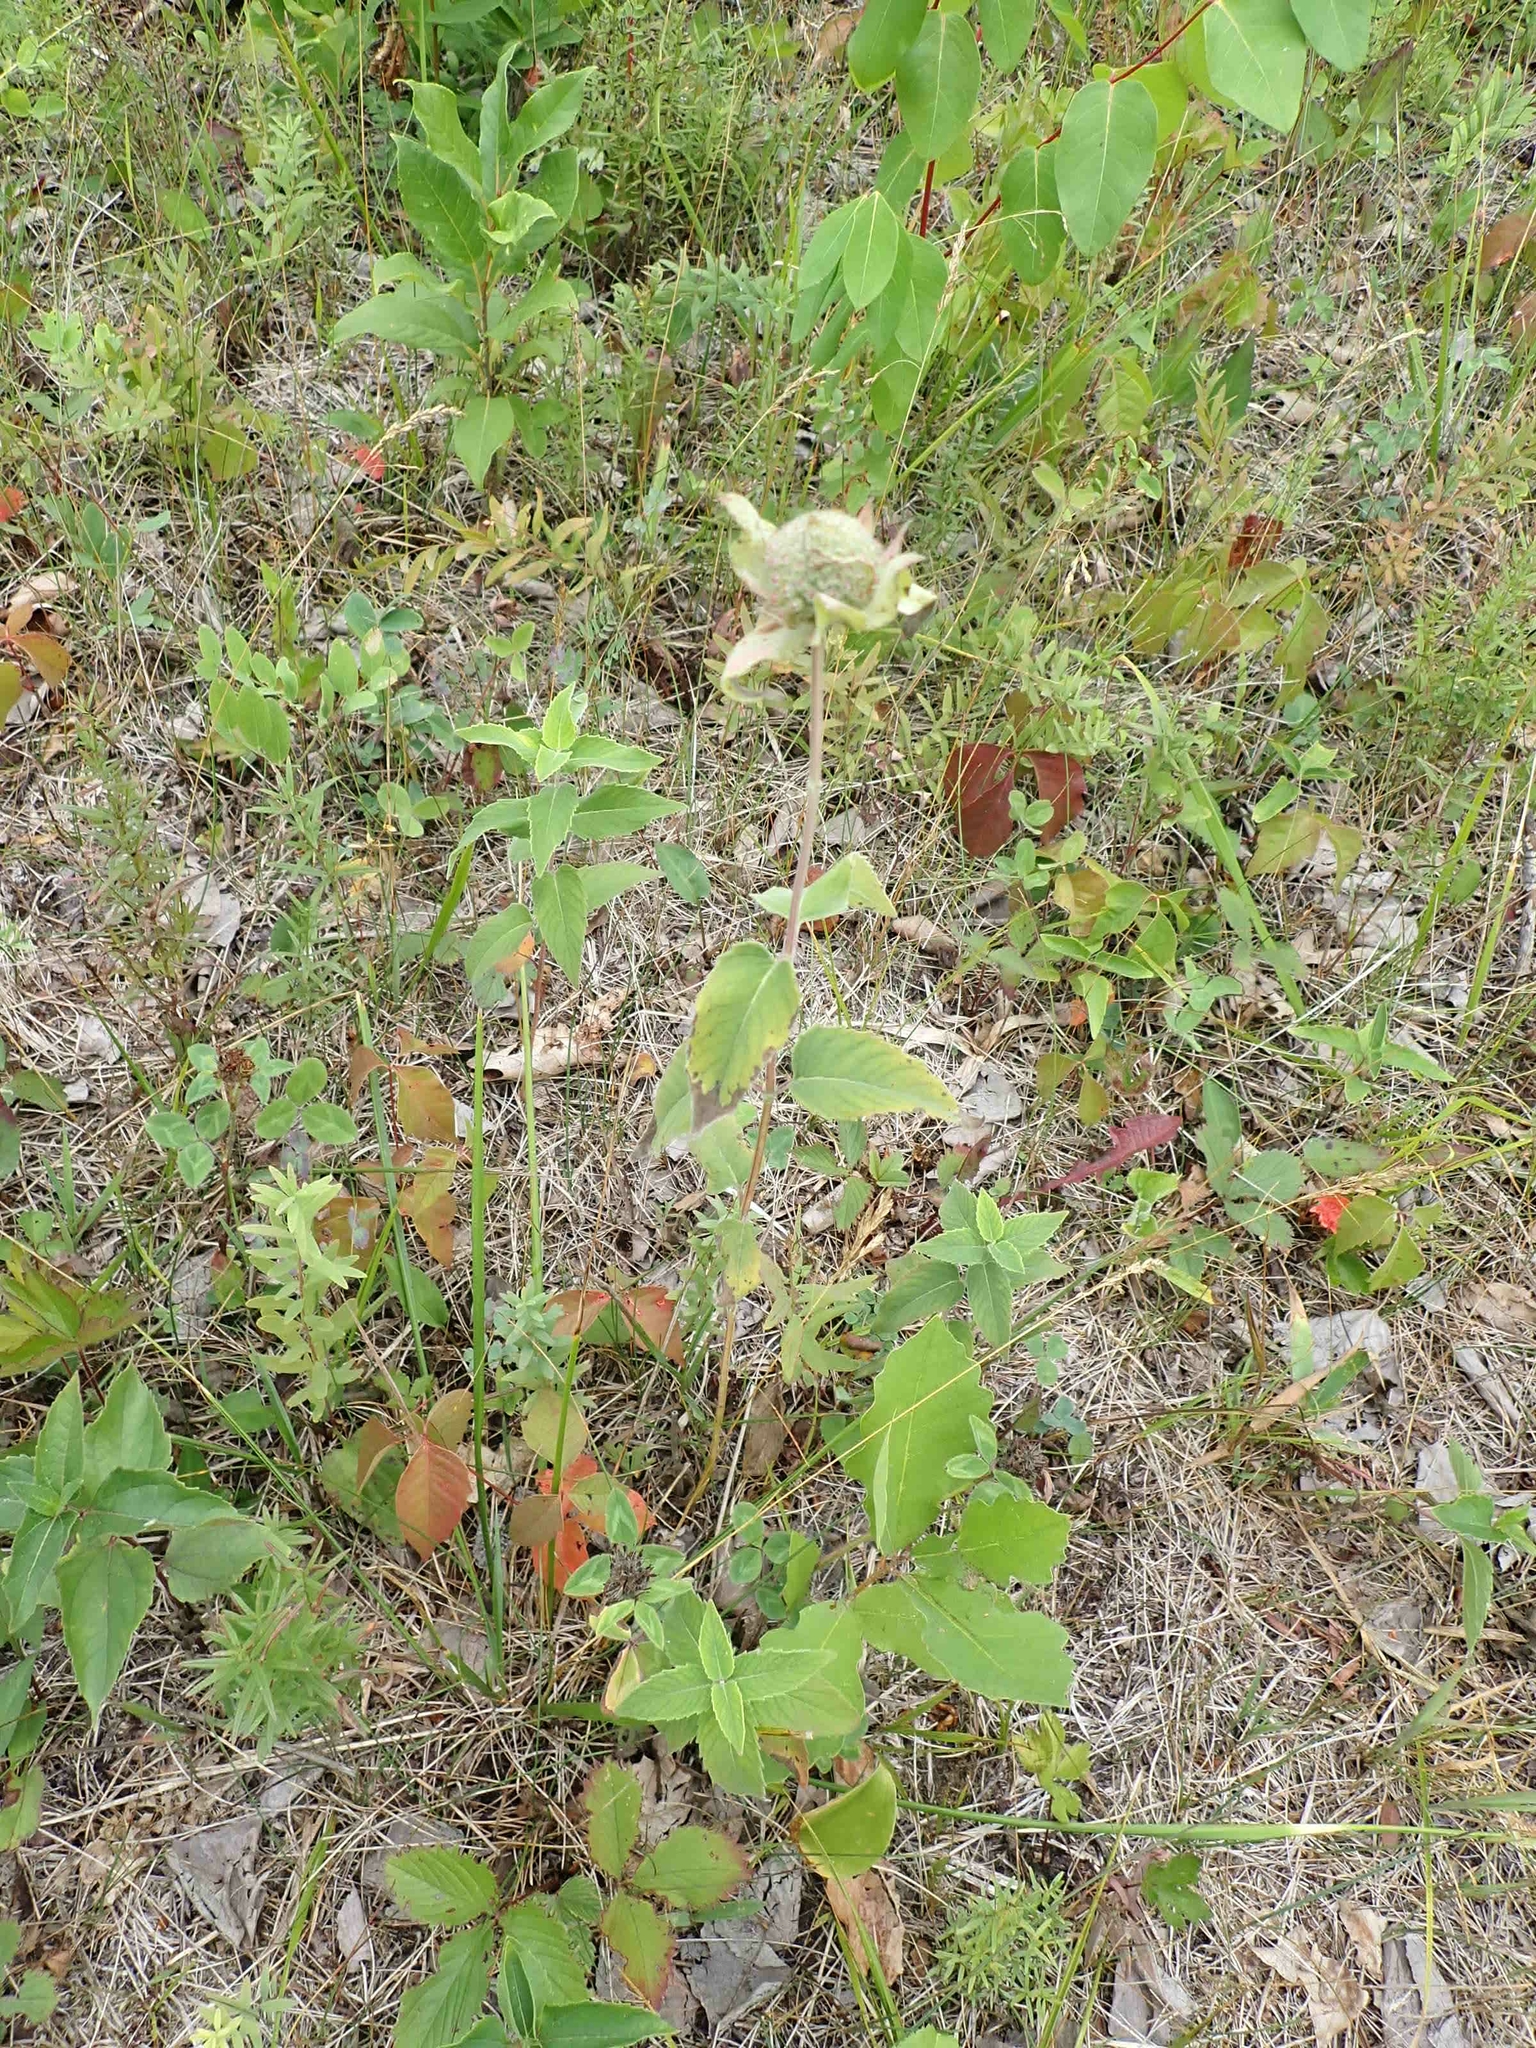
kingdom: Plantae
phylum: Tracheophyta
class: Magnoliopsida
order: Lamiales
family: Lamiaceae
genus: Monarda
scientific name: Monarda fistulosa
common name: Purple beebalm
